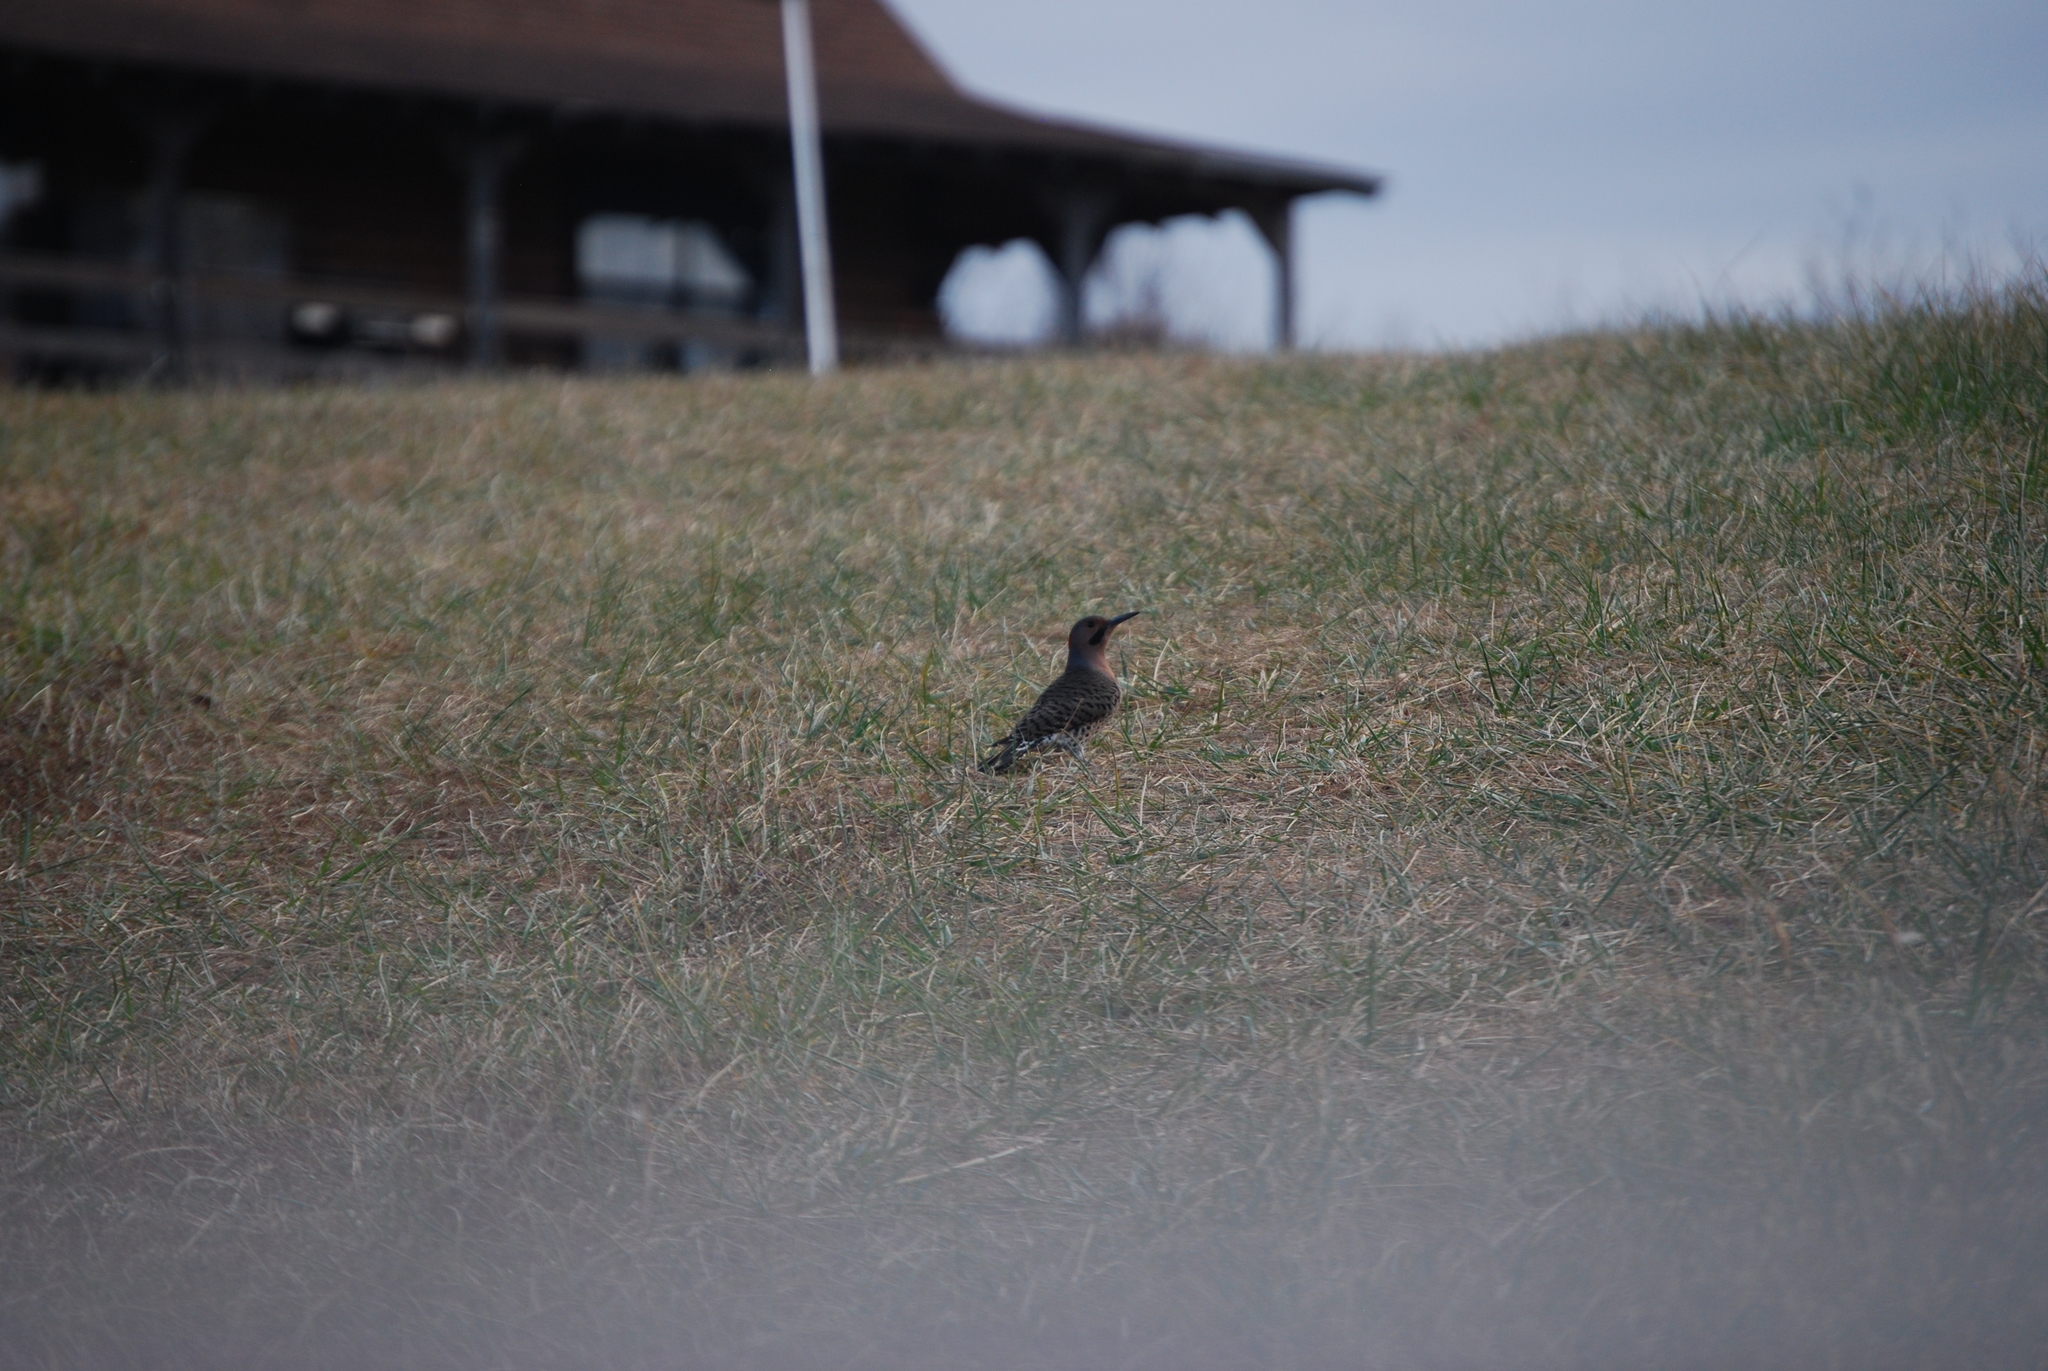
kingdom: Animalia
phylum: Chordata
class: Aves
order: Piciformes
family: Picidae
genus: Colaptes
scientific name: Colaptes auratus
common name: Northern flicker
